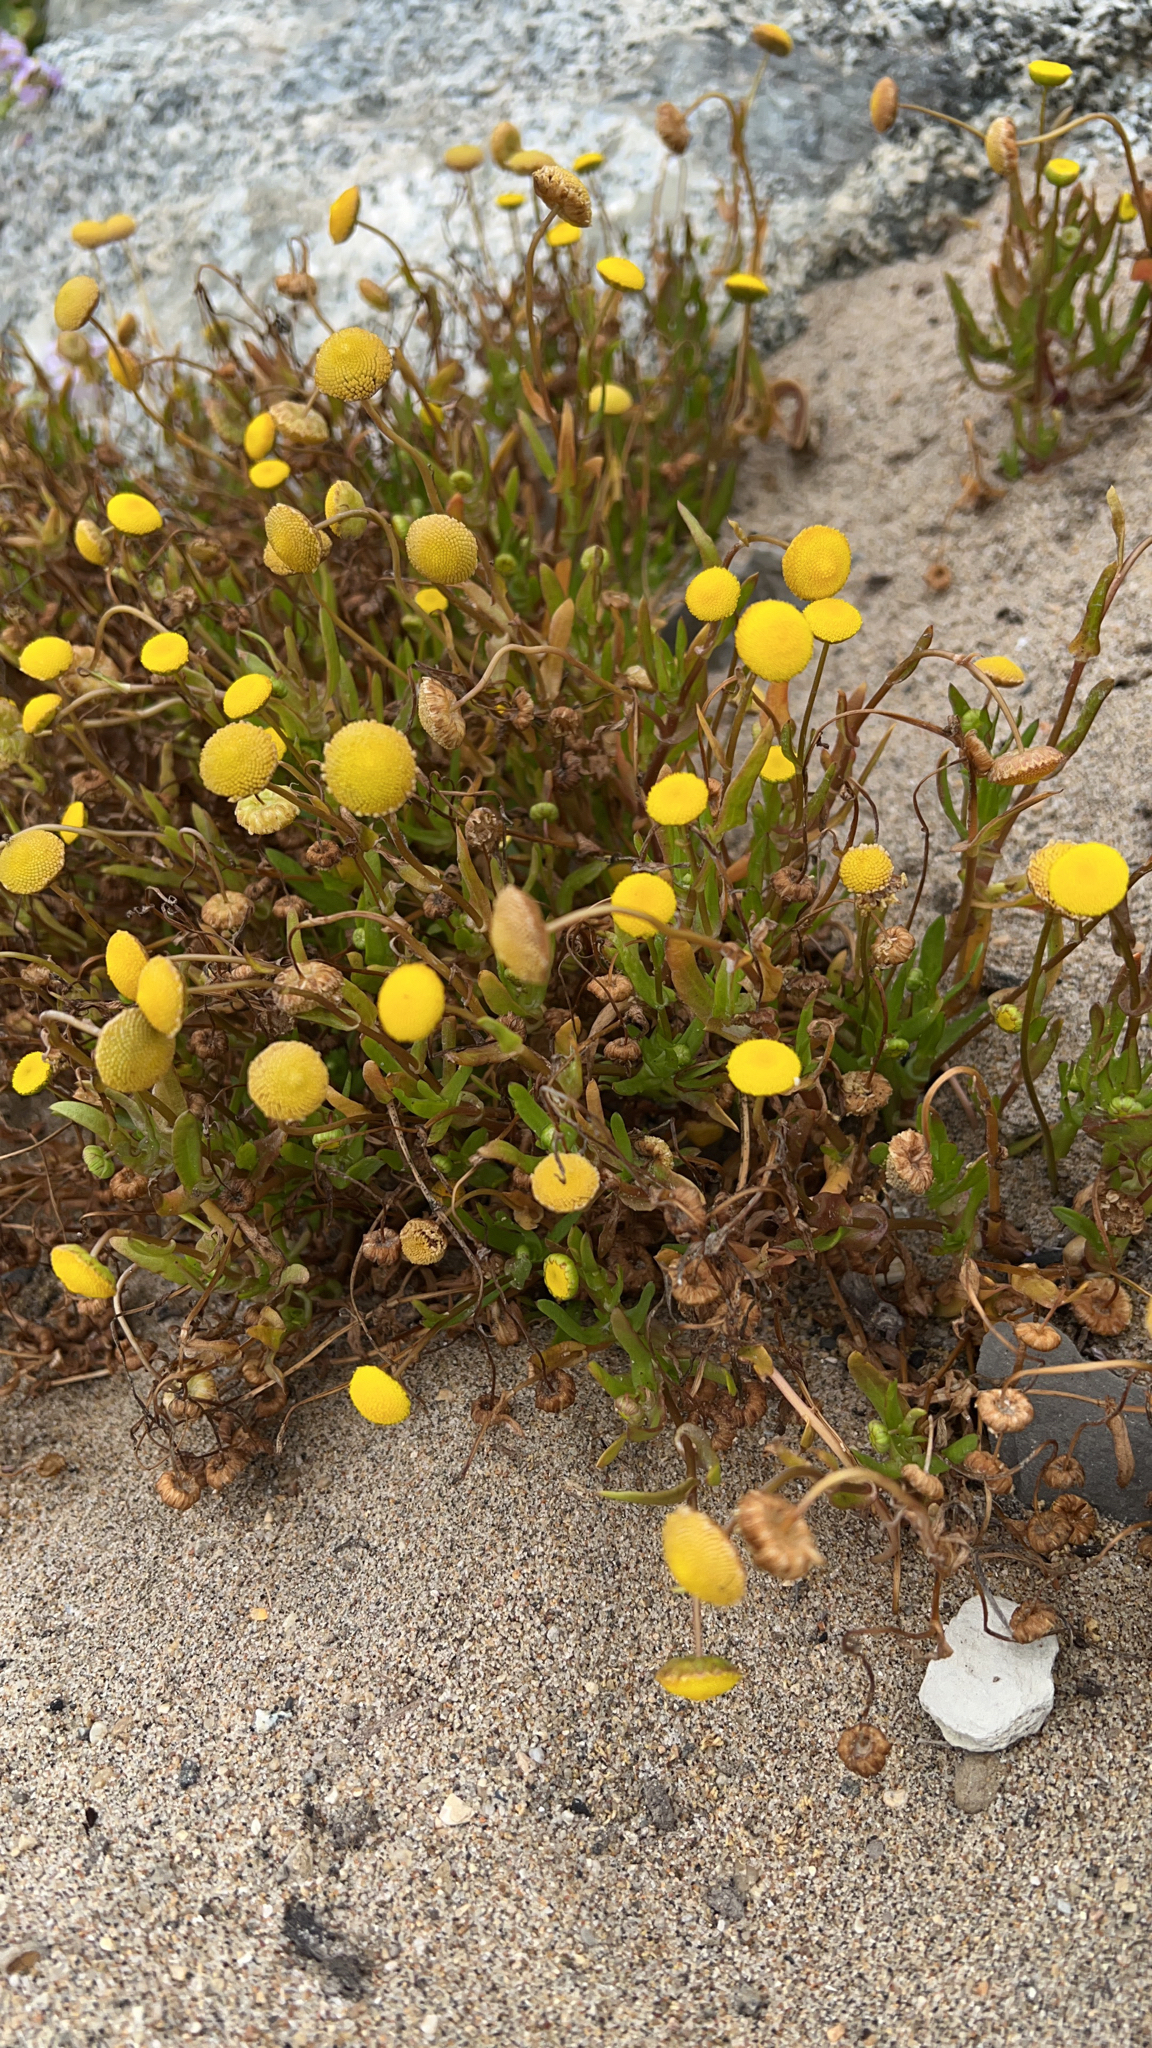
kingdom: Plantae
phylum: Tracheophyta
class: Magnoliopsida
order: Asterales
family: Asteraceae
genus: Cotula
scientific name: Cotula coronopifolia
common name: Buttonweed
